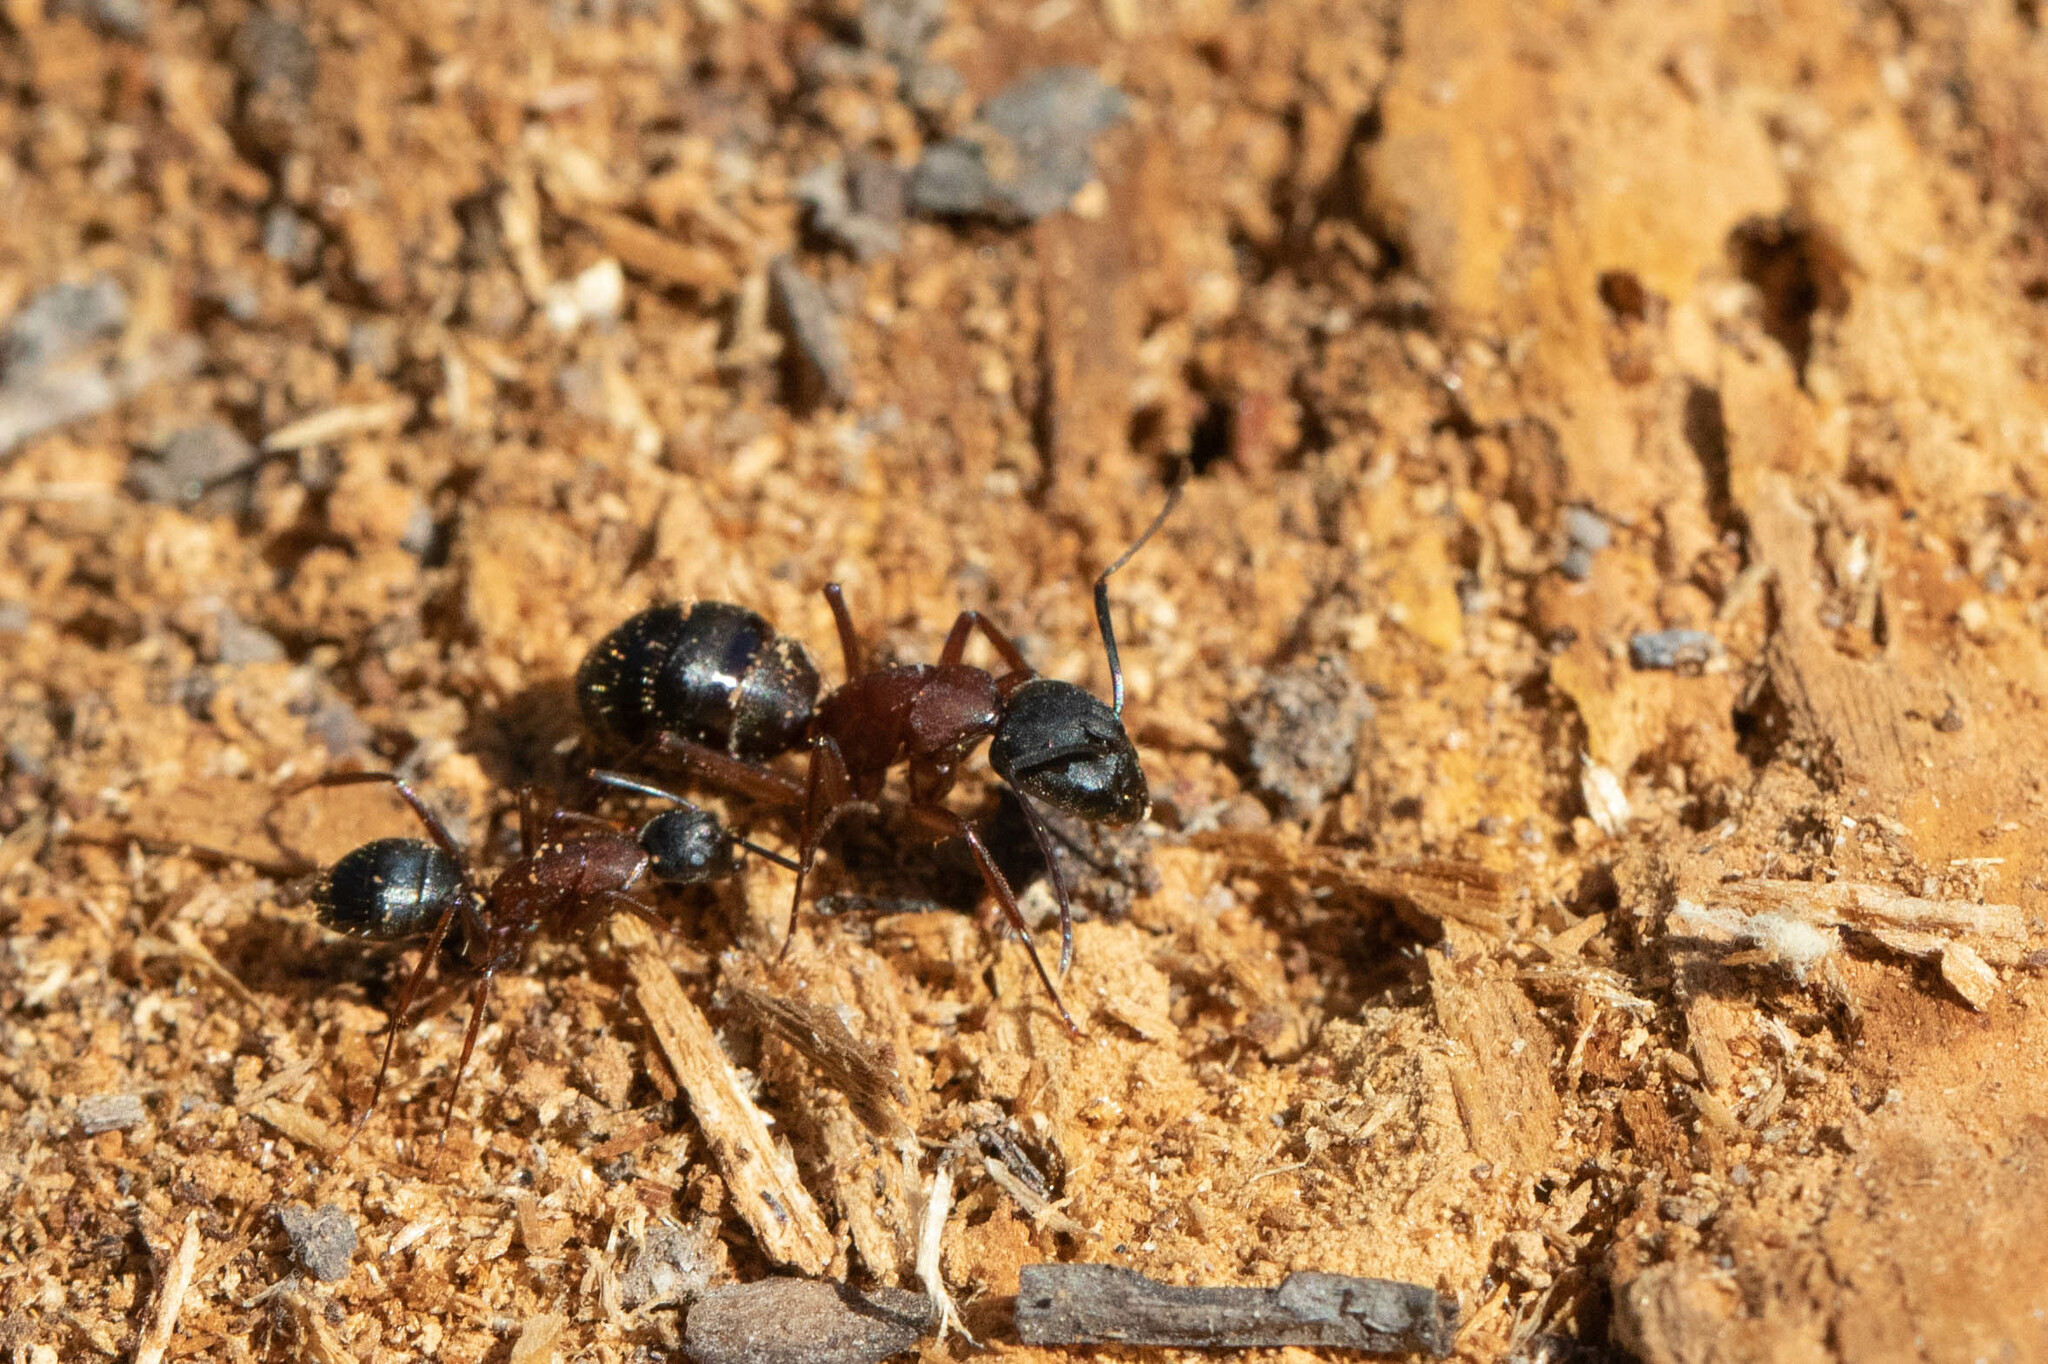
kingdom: Animalia
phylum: Arthropoda
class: Insecta
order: Hymenoptera
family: Formicidae
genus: Camponotus
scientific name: Camponotus vicinus
